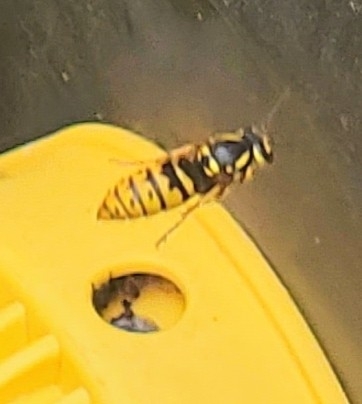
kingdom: Animalia
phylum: Arthropoda
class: Insecta
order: Hymenoptera
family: Vespidae
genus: Vespula
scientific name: Vespula flavopilosa
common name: Downy yellowjacket
